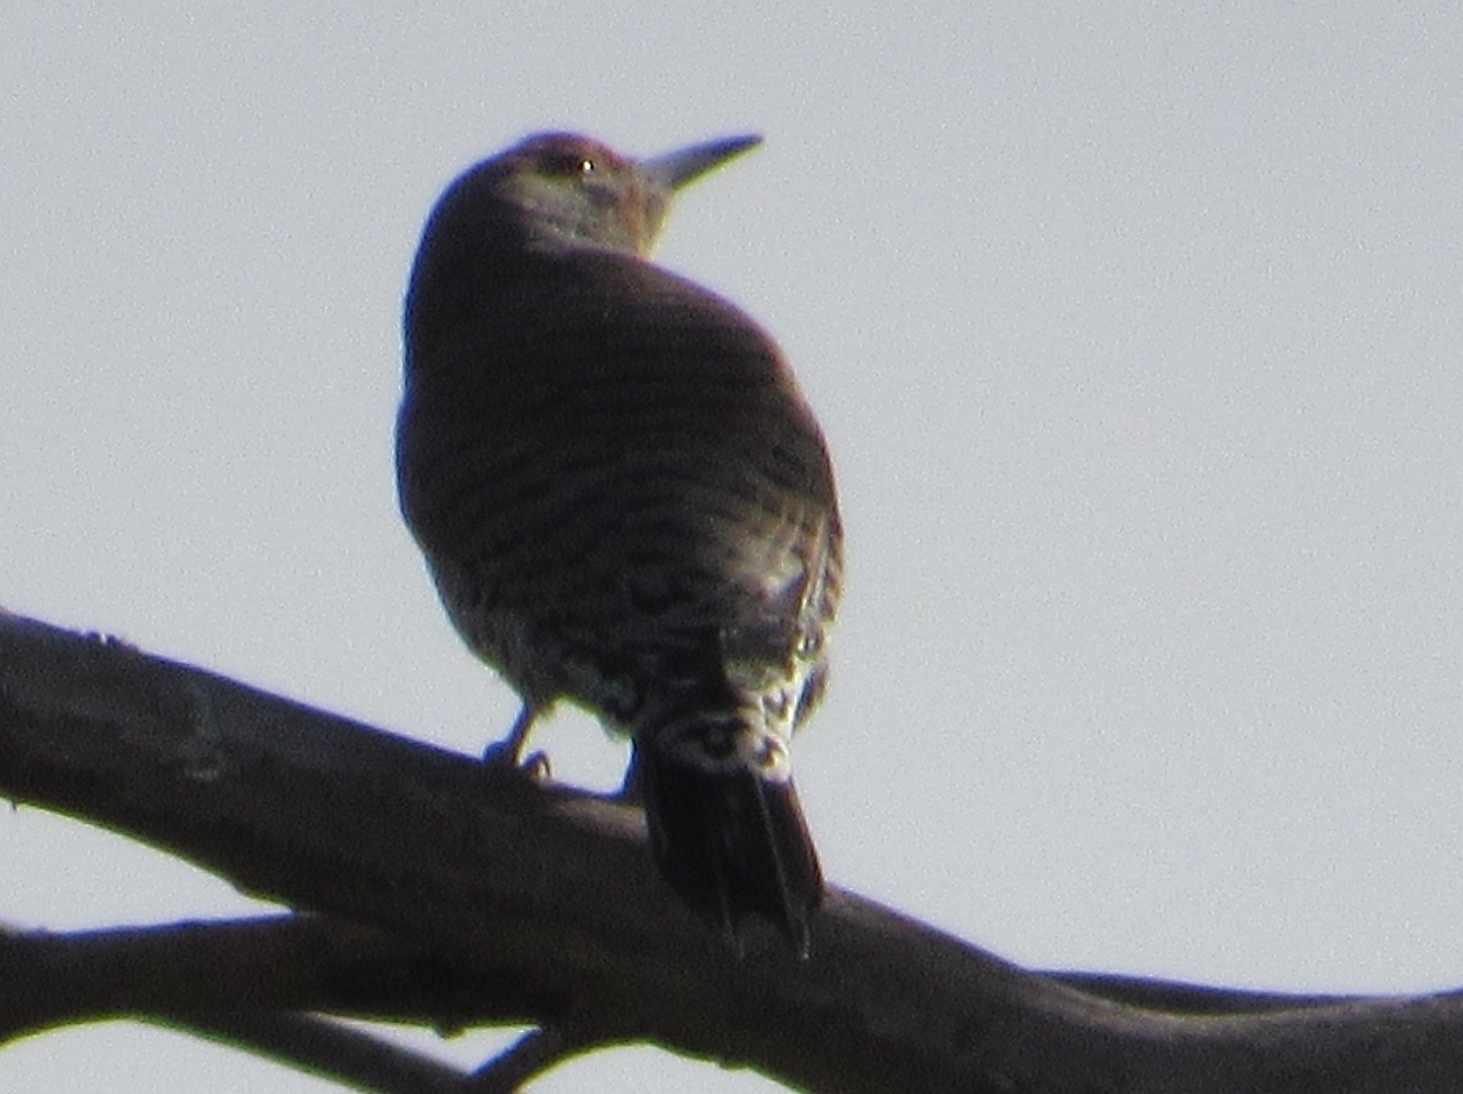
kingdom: Animalia
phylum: Chordata
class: Aves
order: Piciformes
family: Picidae
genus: Colaptes
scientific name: Colaptes auratus
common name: Northern flicker
